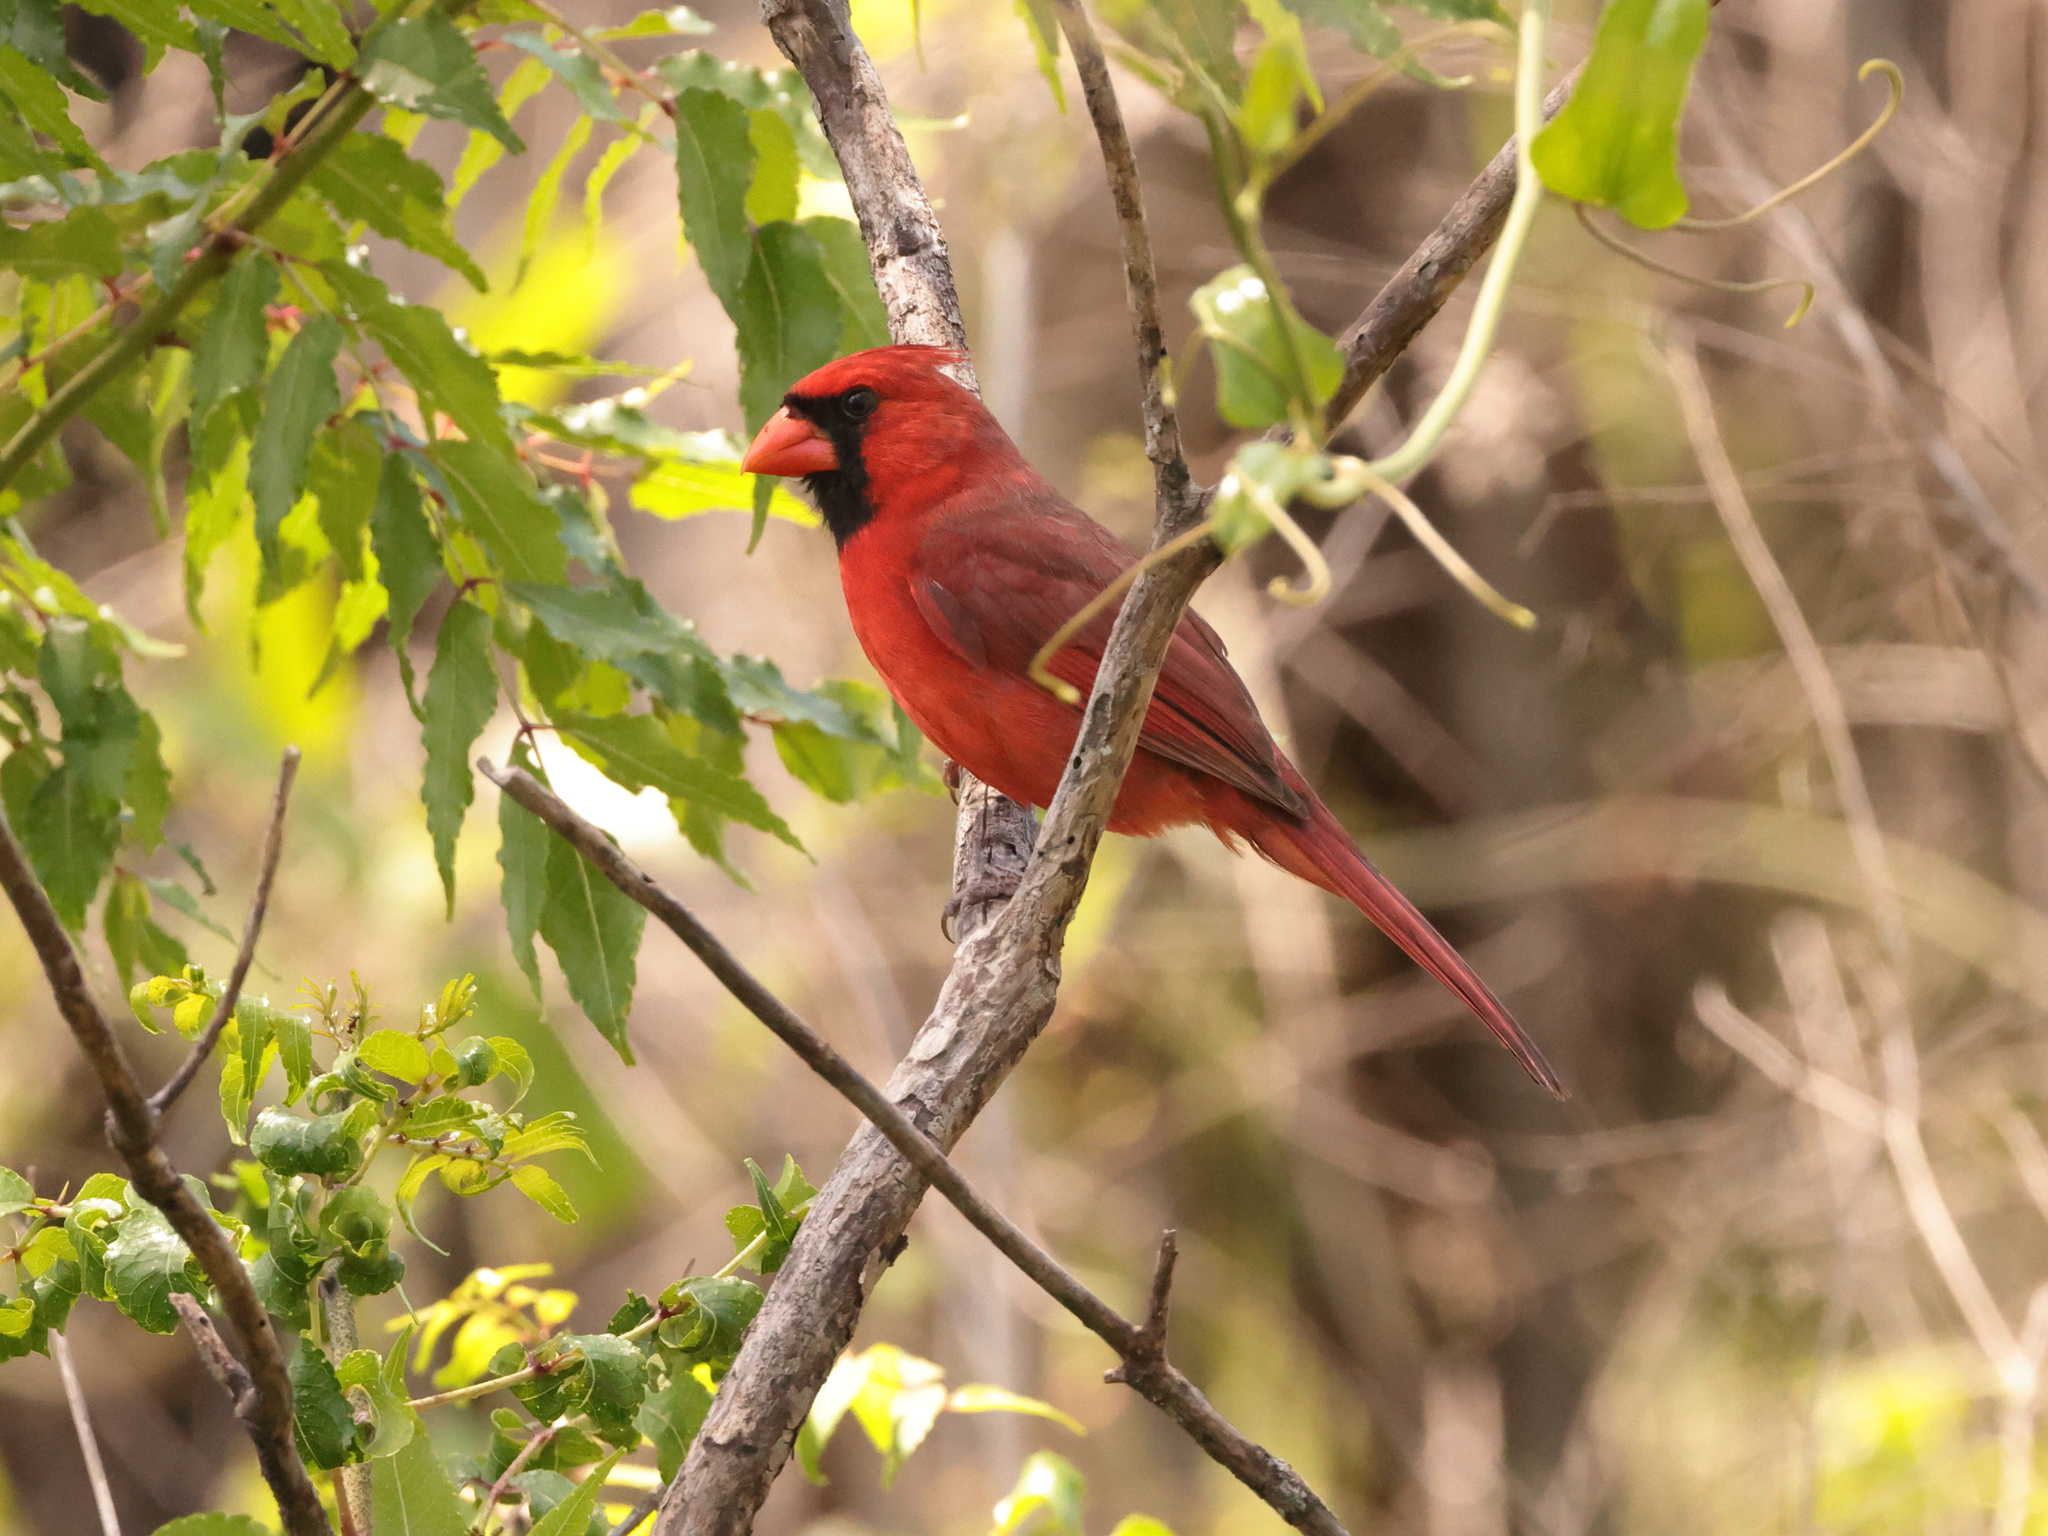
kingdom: Animalia
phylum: Chordata
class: Aves
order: Passeriformes
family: Cardinalidae
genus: Cardinalis
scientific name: Cardinalis cardinalis
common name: Northern cardinal
